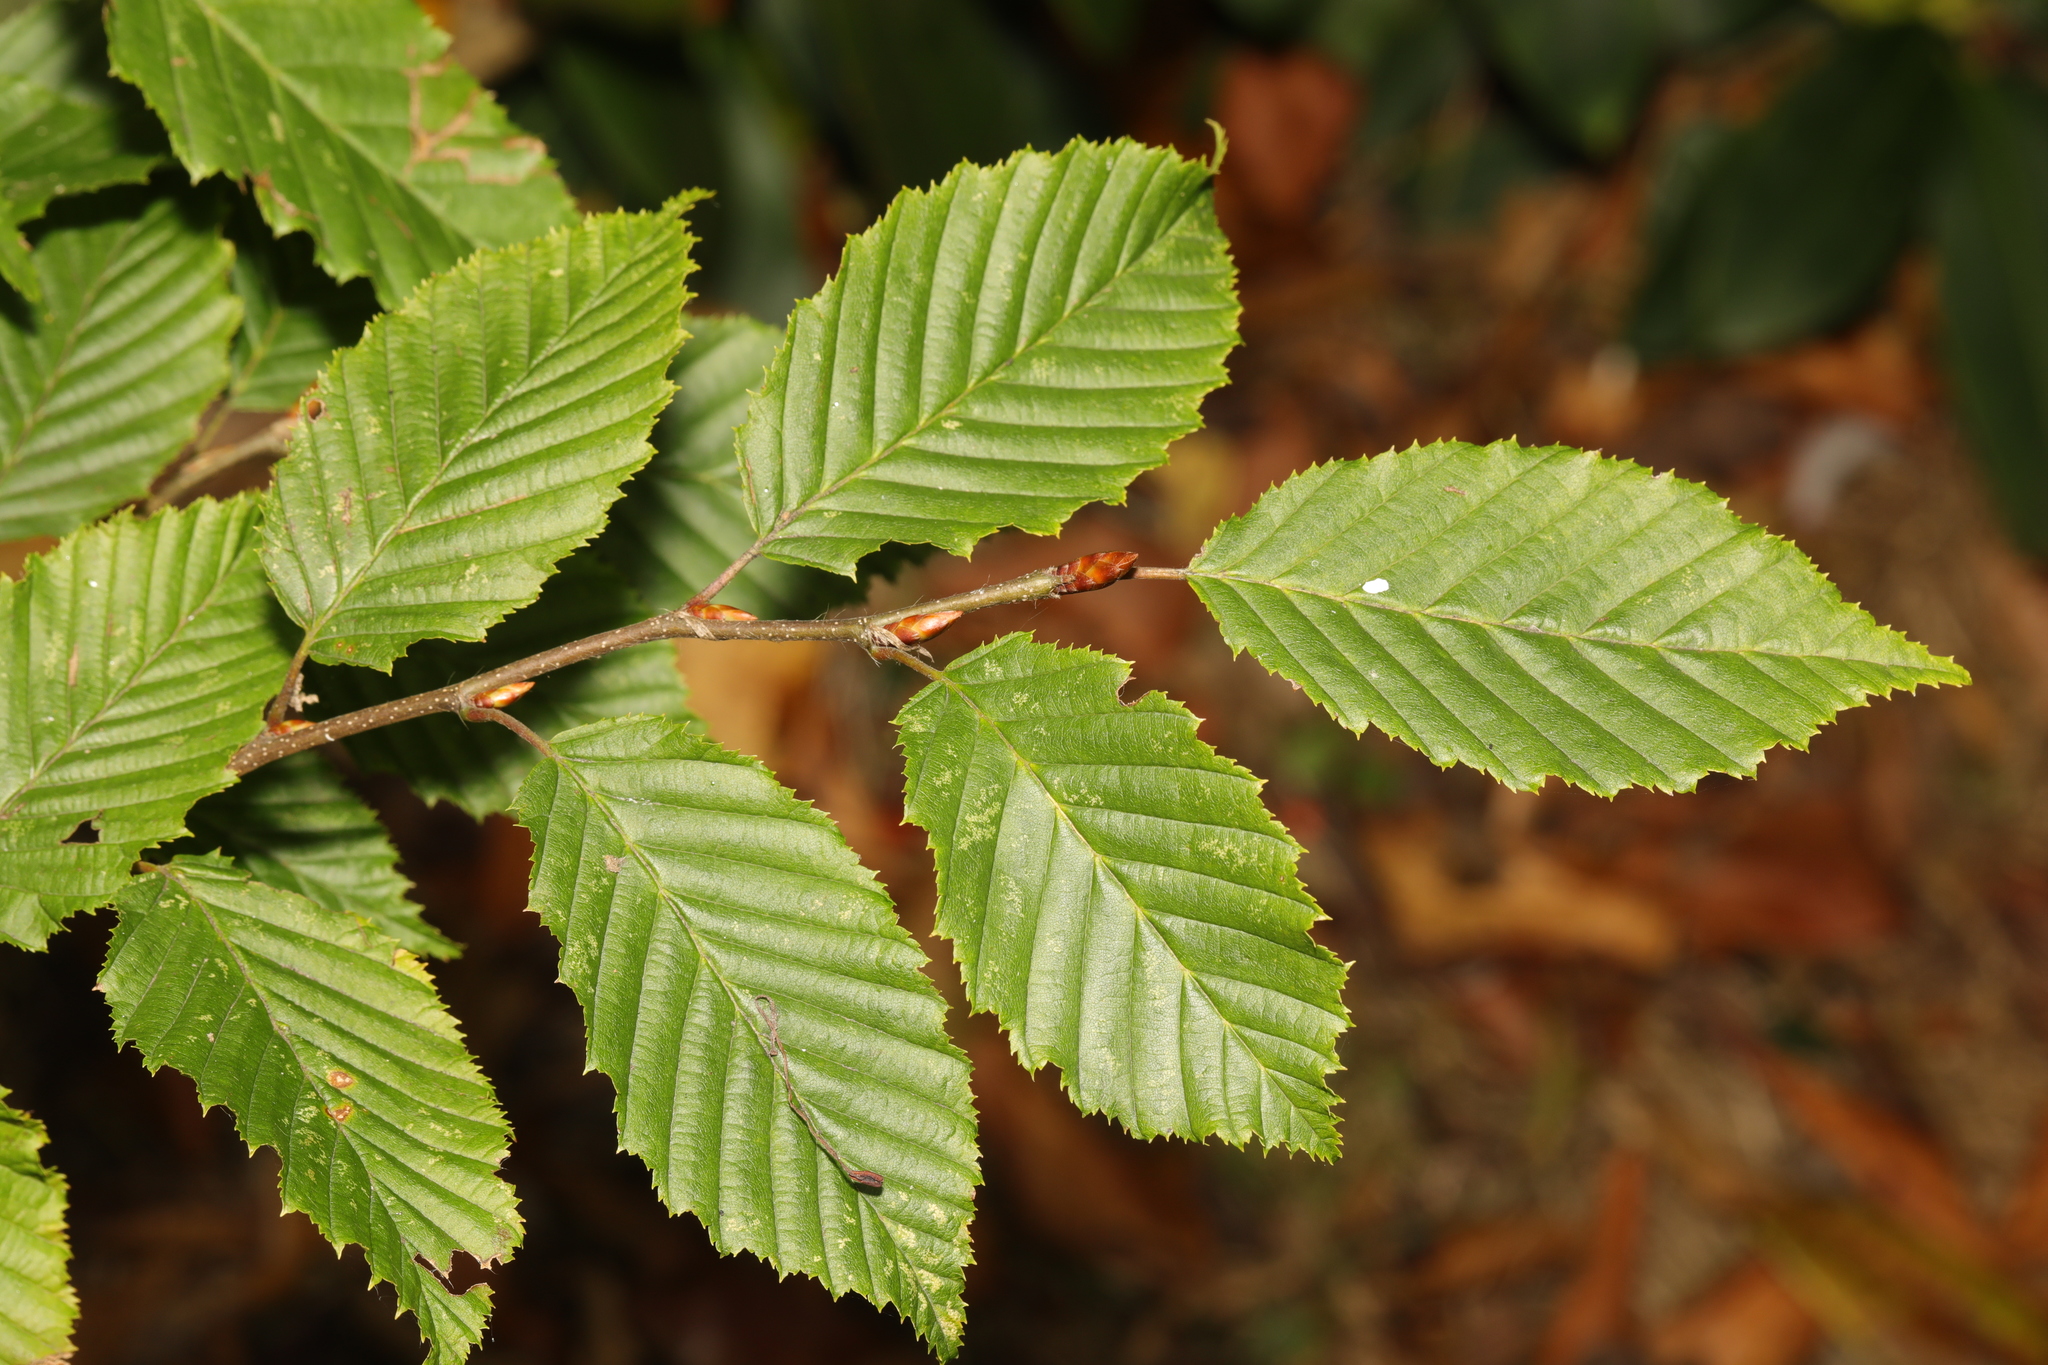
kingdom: Plantae
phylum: Tracheophyta
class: Magnoliopsida
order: Fagales
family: Betulaceae
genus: Carpinus
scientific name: Carpinus betulus
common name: Hornbeam
